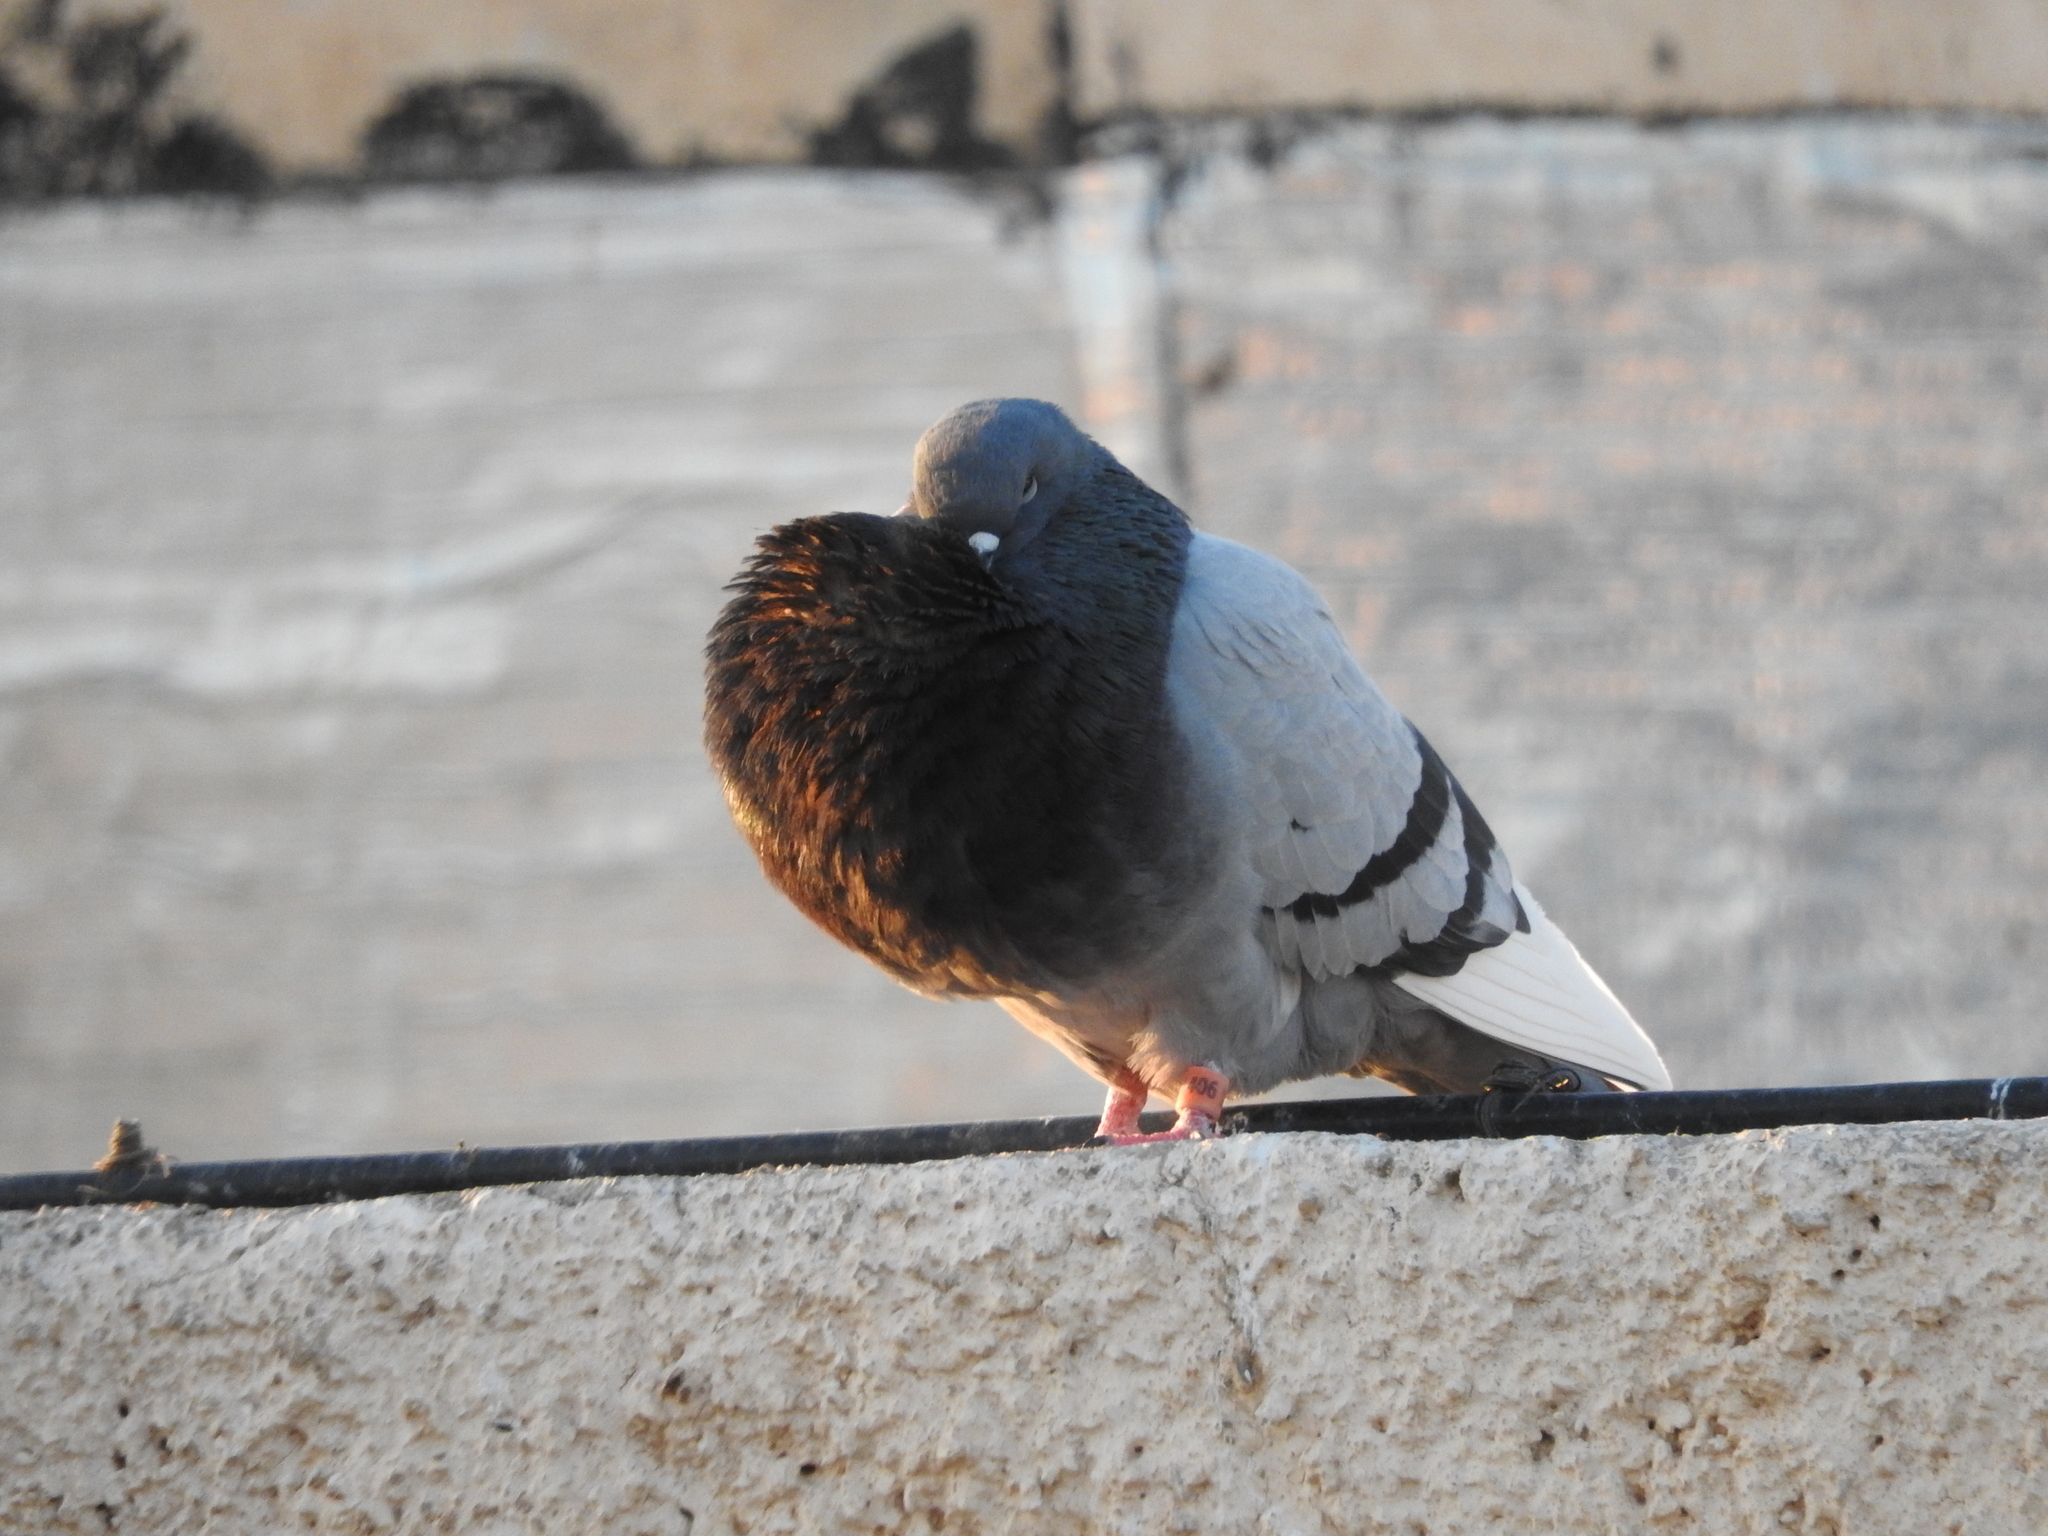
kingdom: Animalia
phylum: Chordata
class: Aves
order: Columbiformes
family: Columbidae
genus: Columba
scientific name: Columba livia
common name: Rock pigeon
